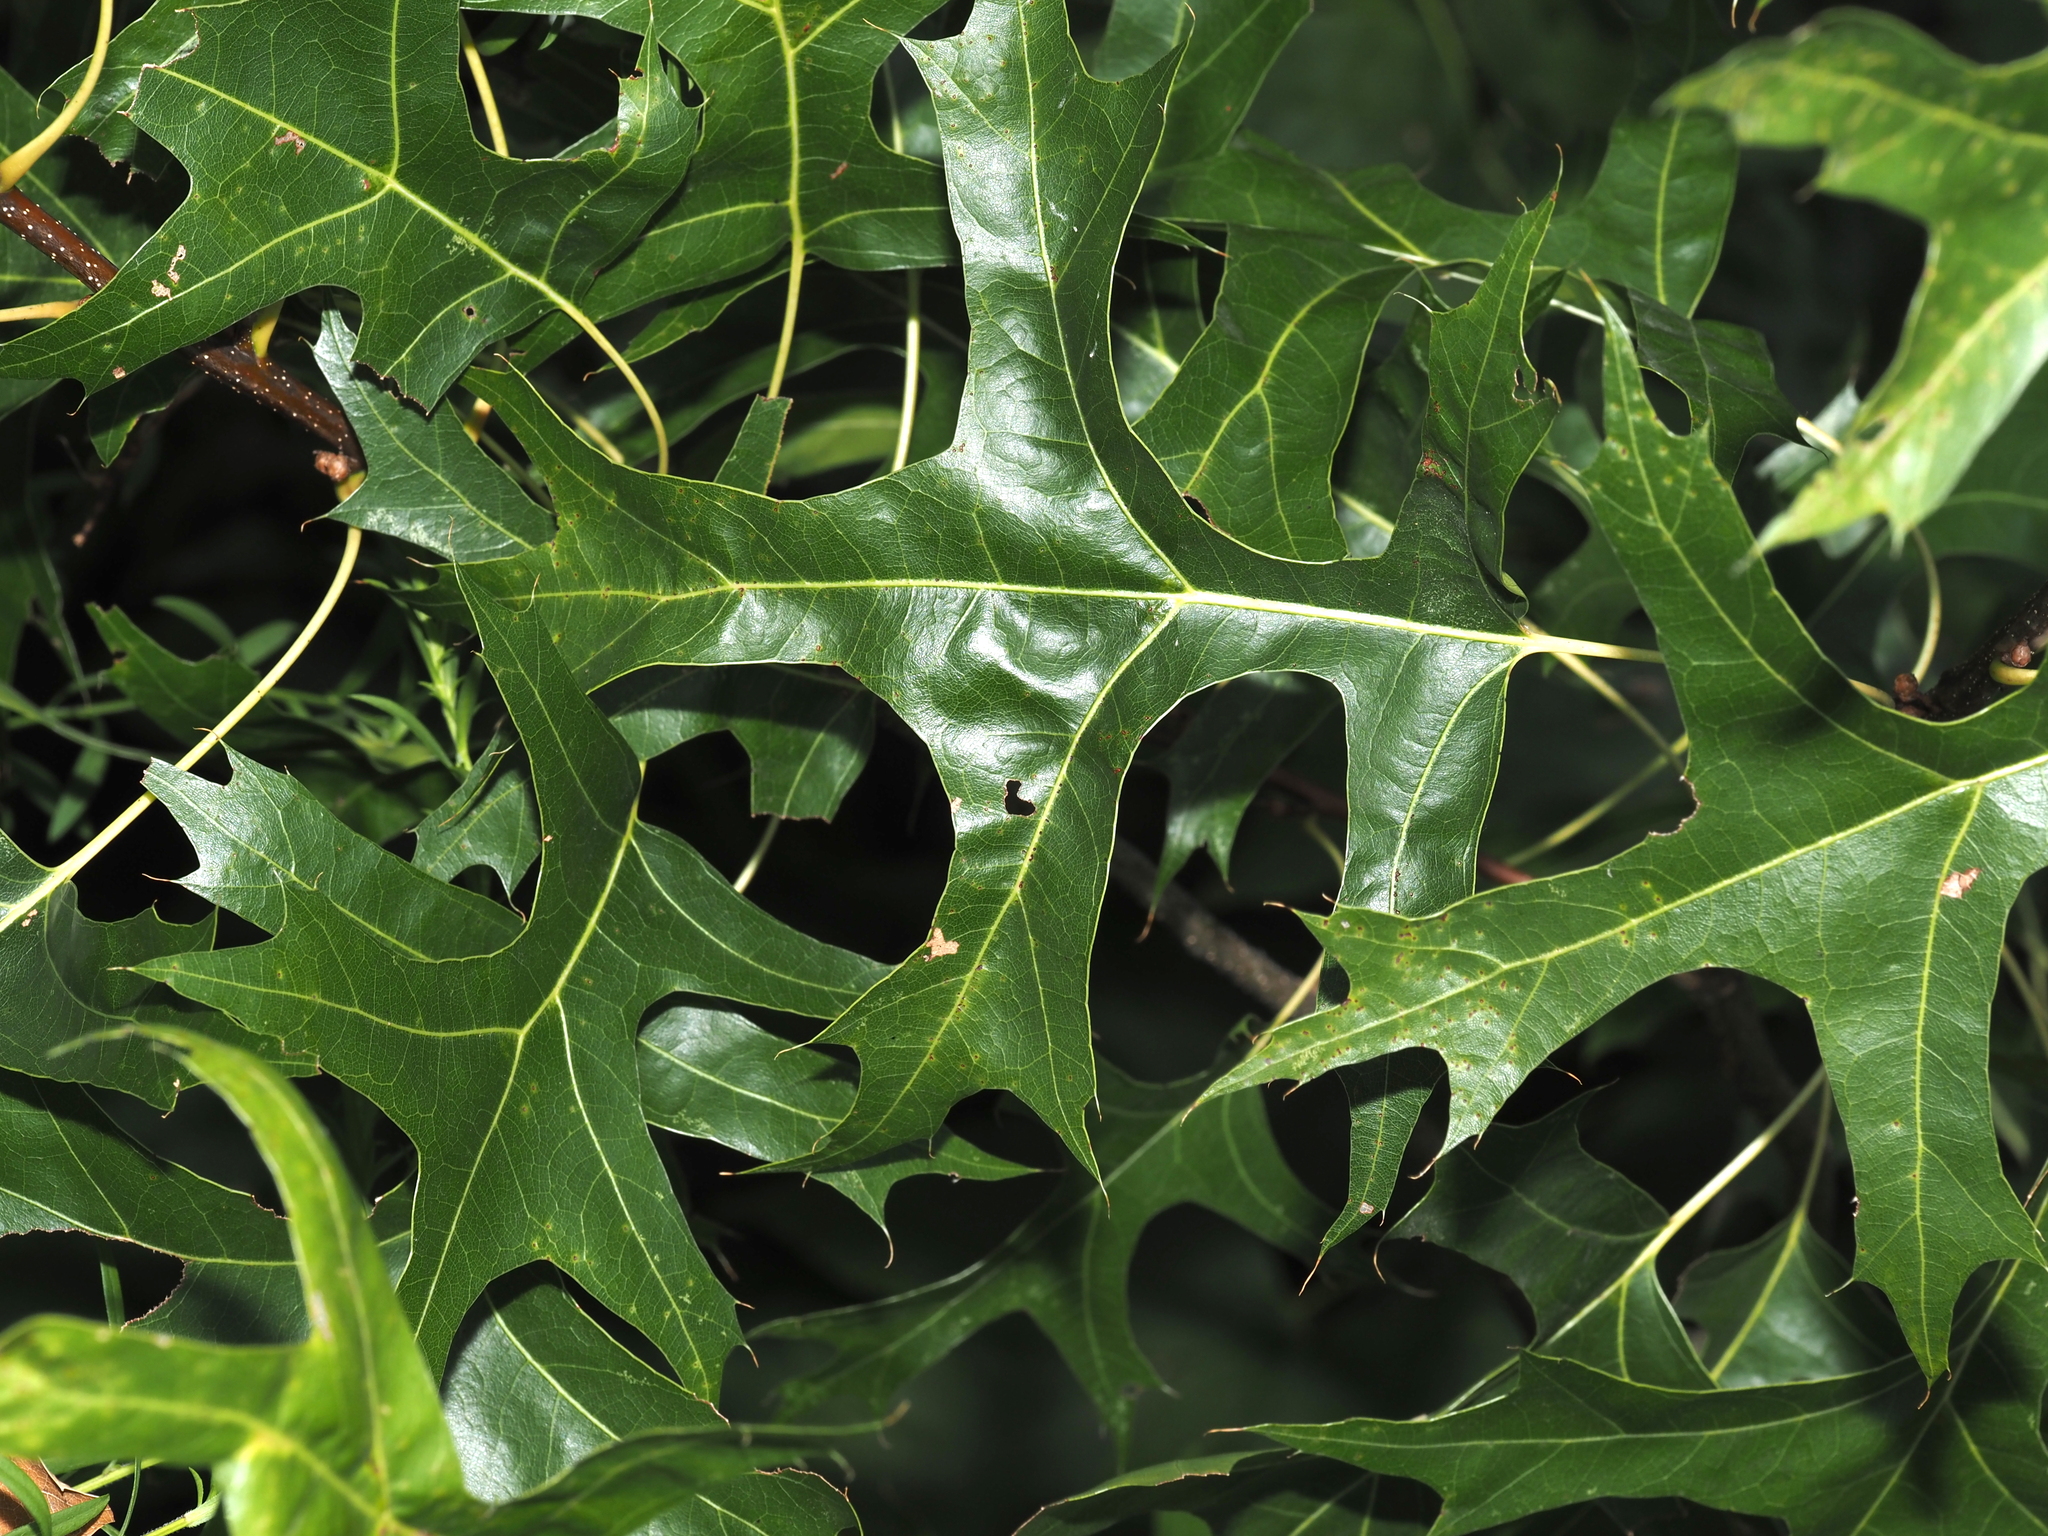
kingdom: Plantae
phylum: Tracheophyta
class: Magnoliopsida
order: Fagales
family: Fagaceae
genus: Quercus
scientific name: Quercus palustris
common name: Pin oak
